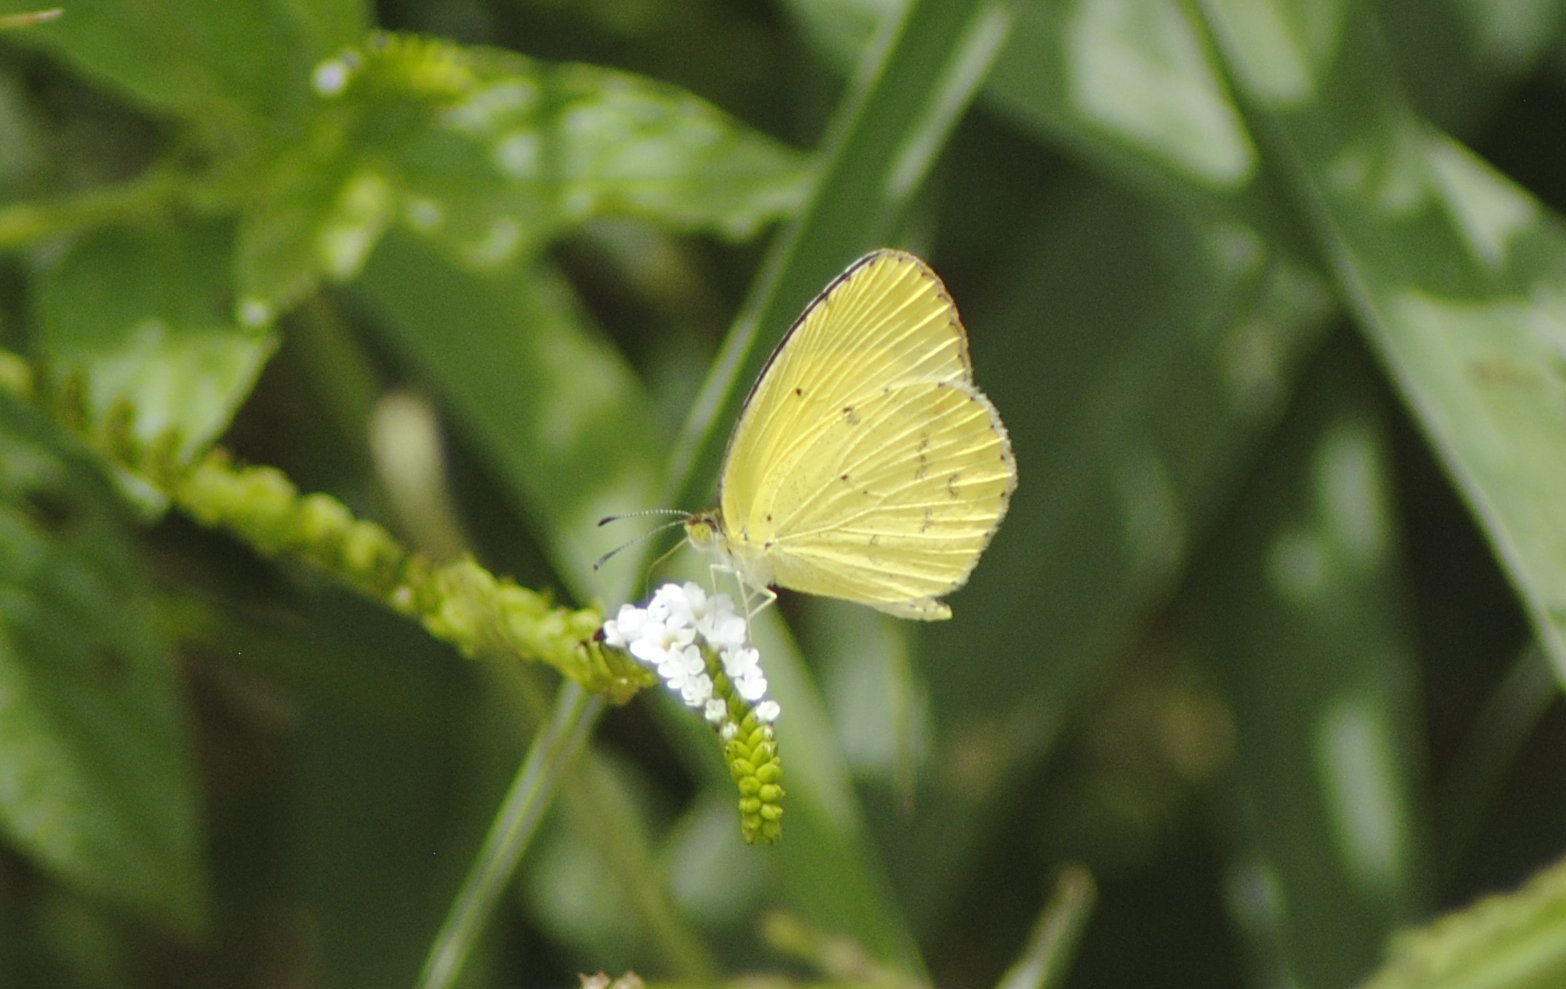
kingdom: Animalia
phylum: Arthropoda
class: Insecta
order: Lepidoptera
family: Pieridae
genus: Pyrisitia
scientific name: Pyrisitia lisa
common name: Little yellow
